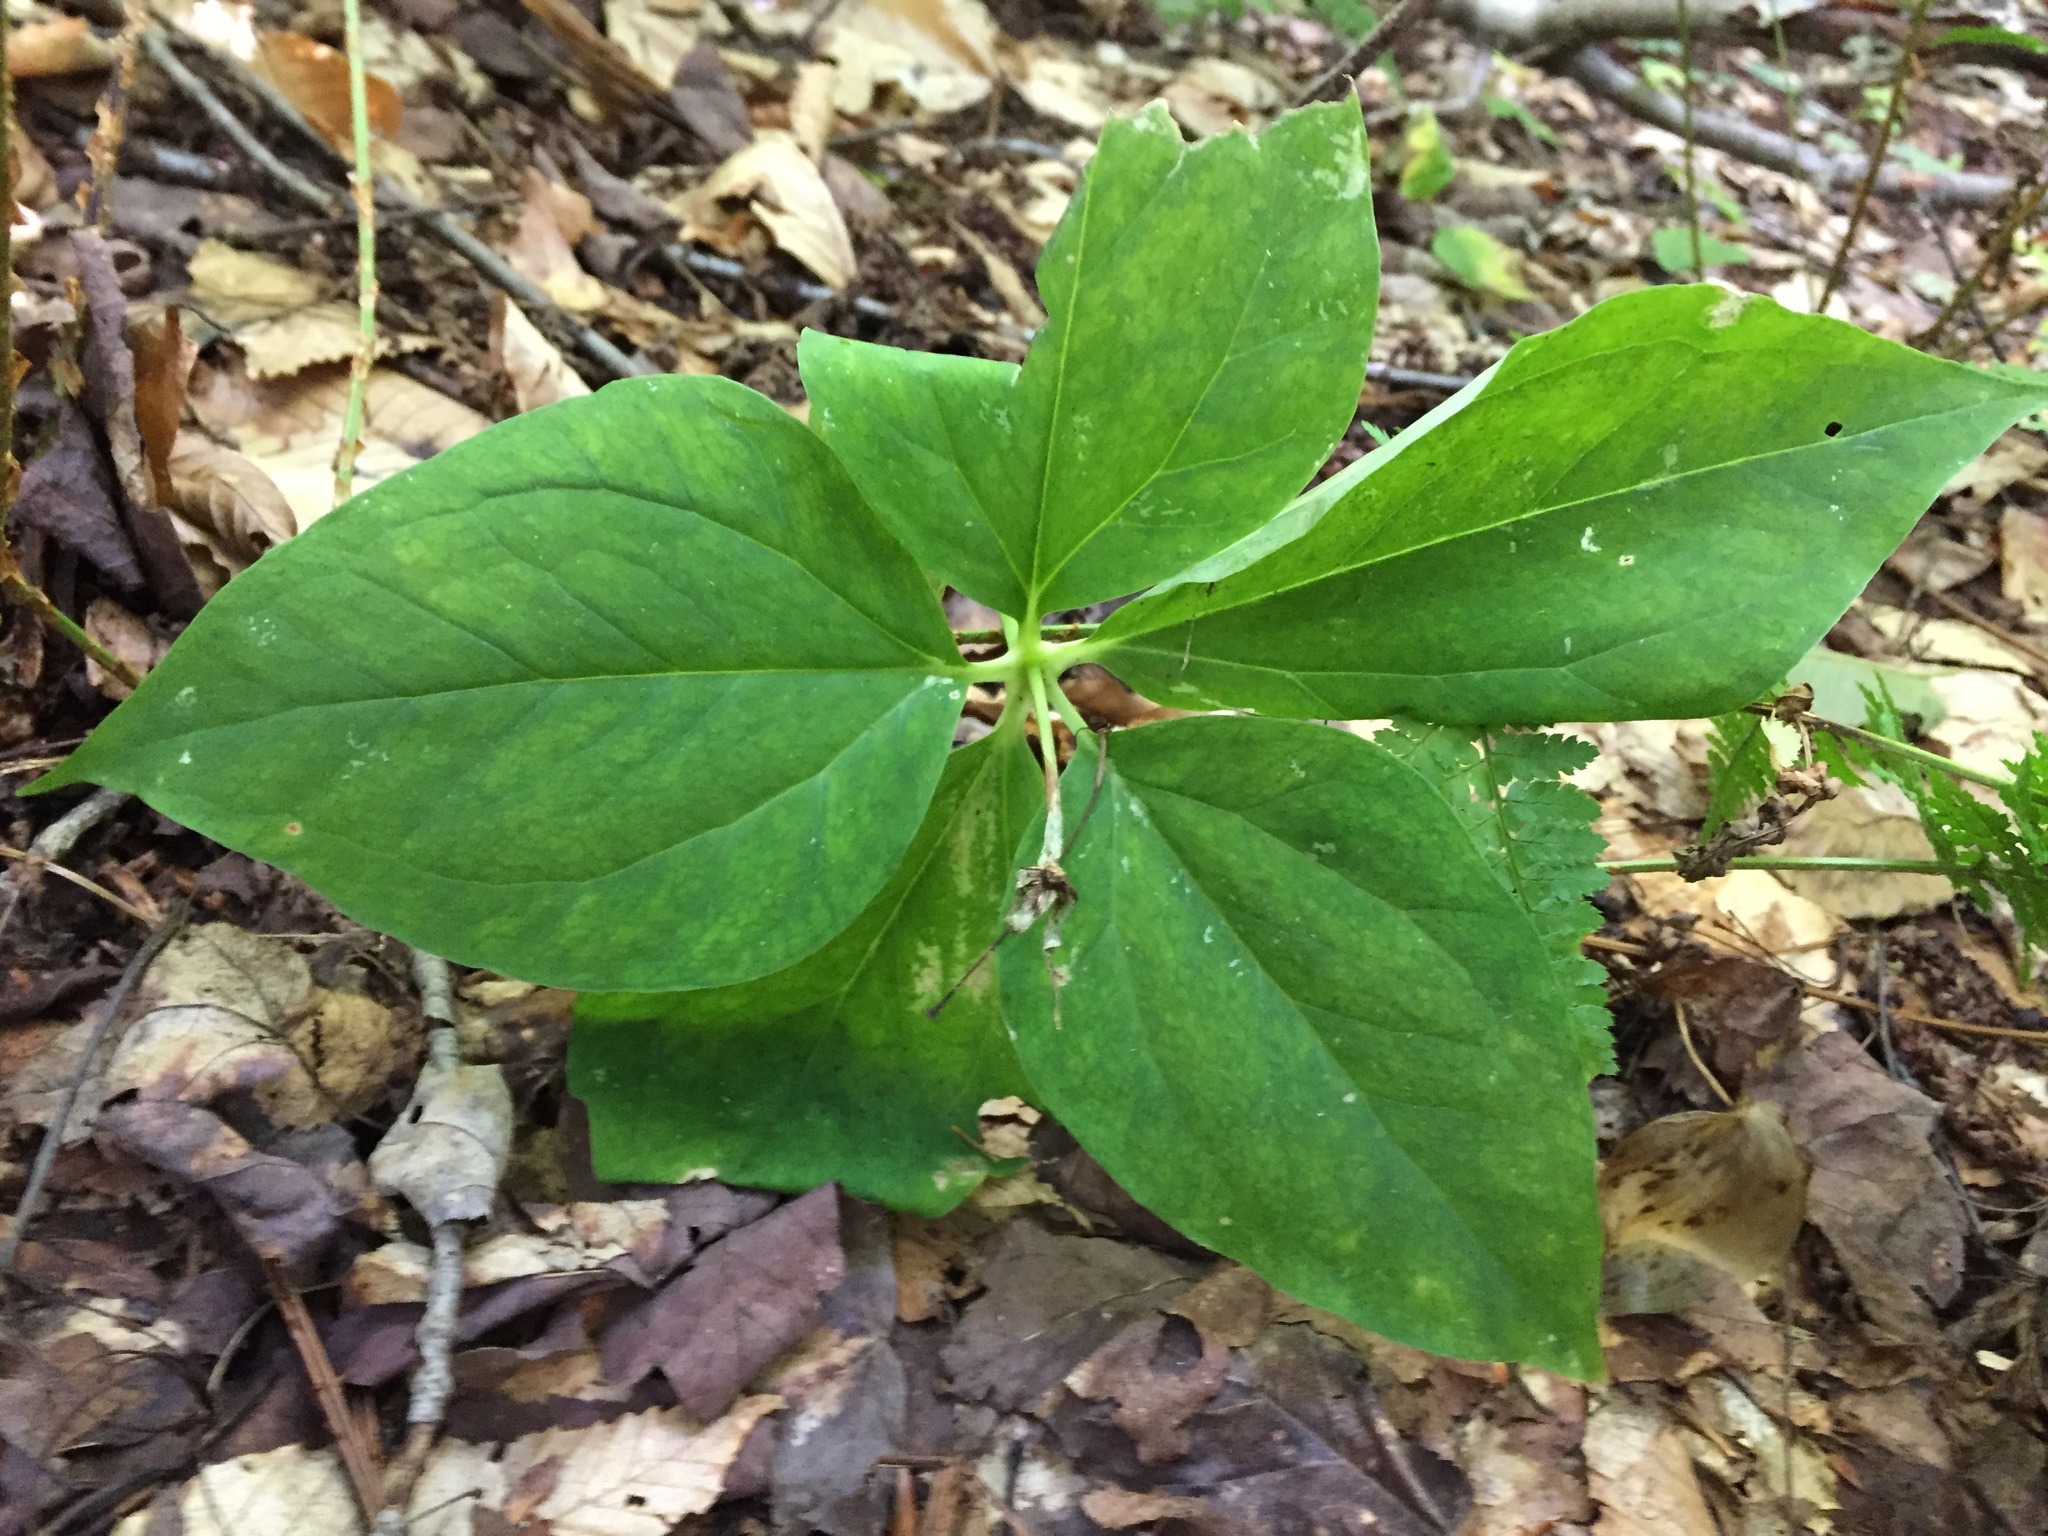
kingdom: Plantae
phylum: Tracheophyta
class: Liliopsida
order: Liliales
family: Melanthiaceae
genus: Trillium
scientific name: Trillium undulatum
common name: Paint trillium
